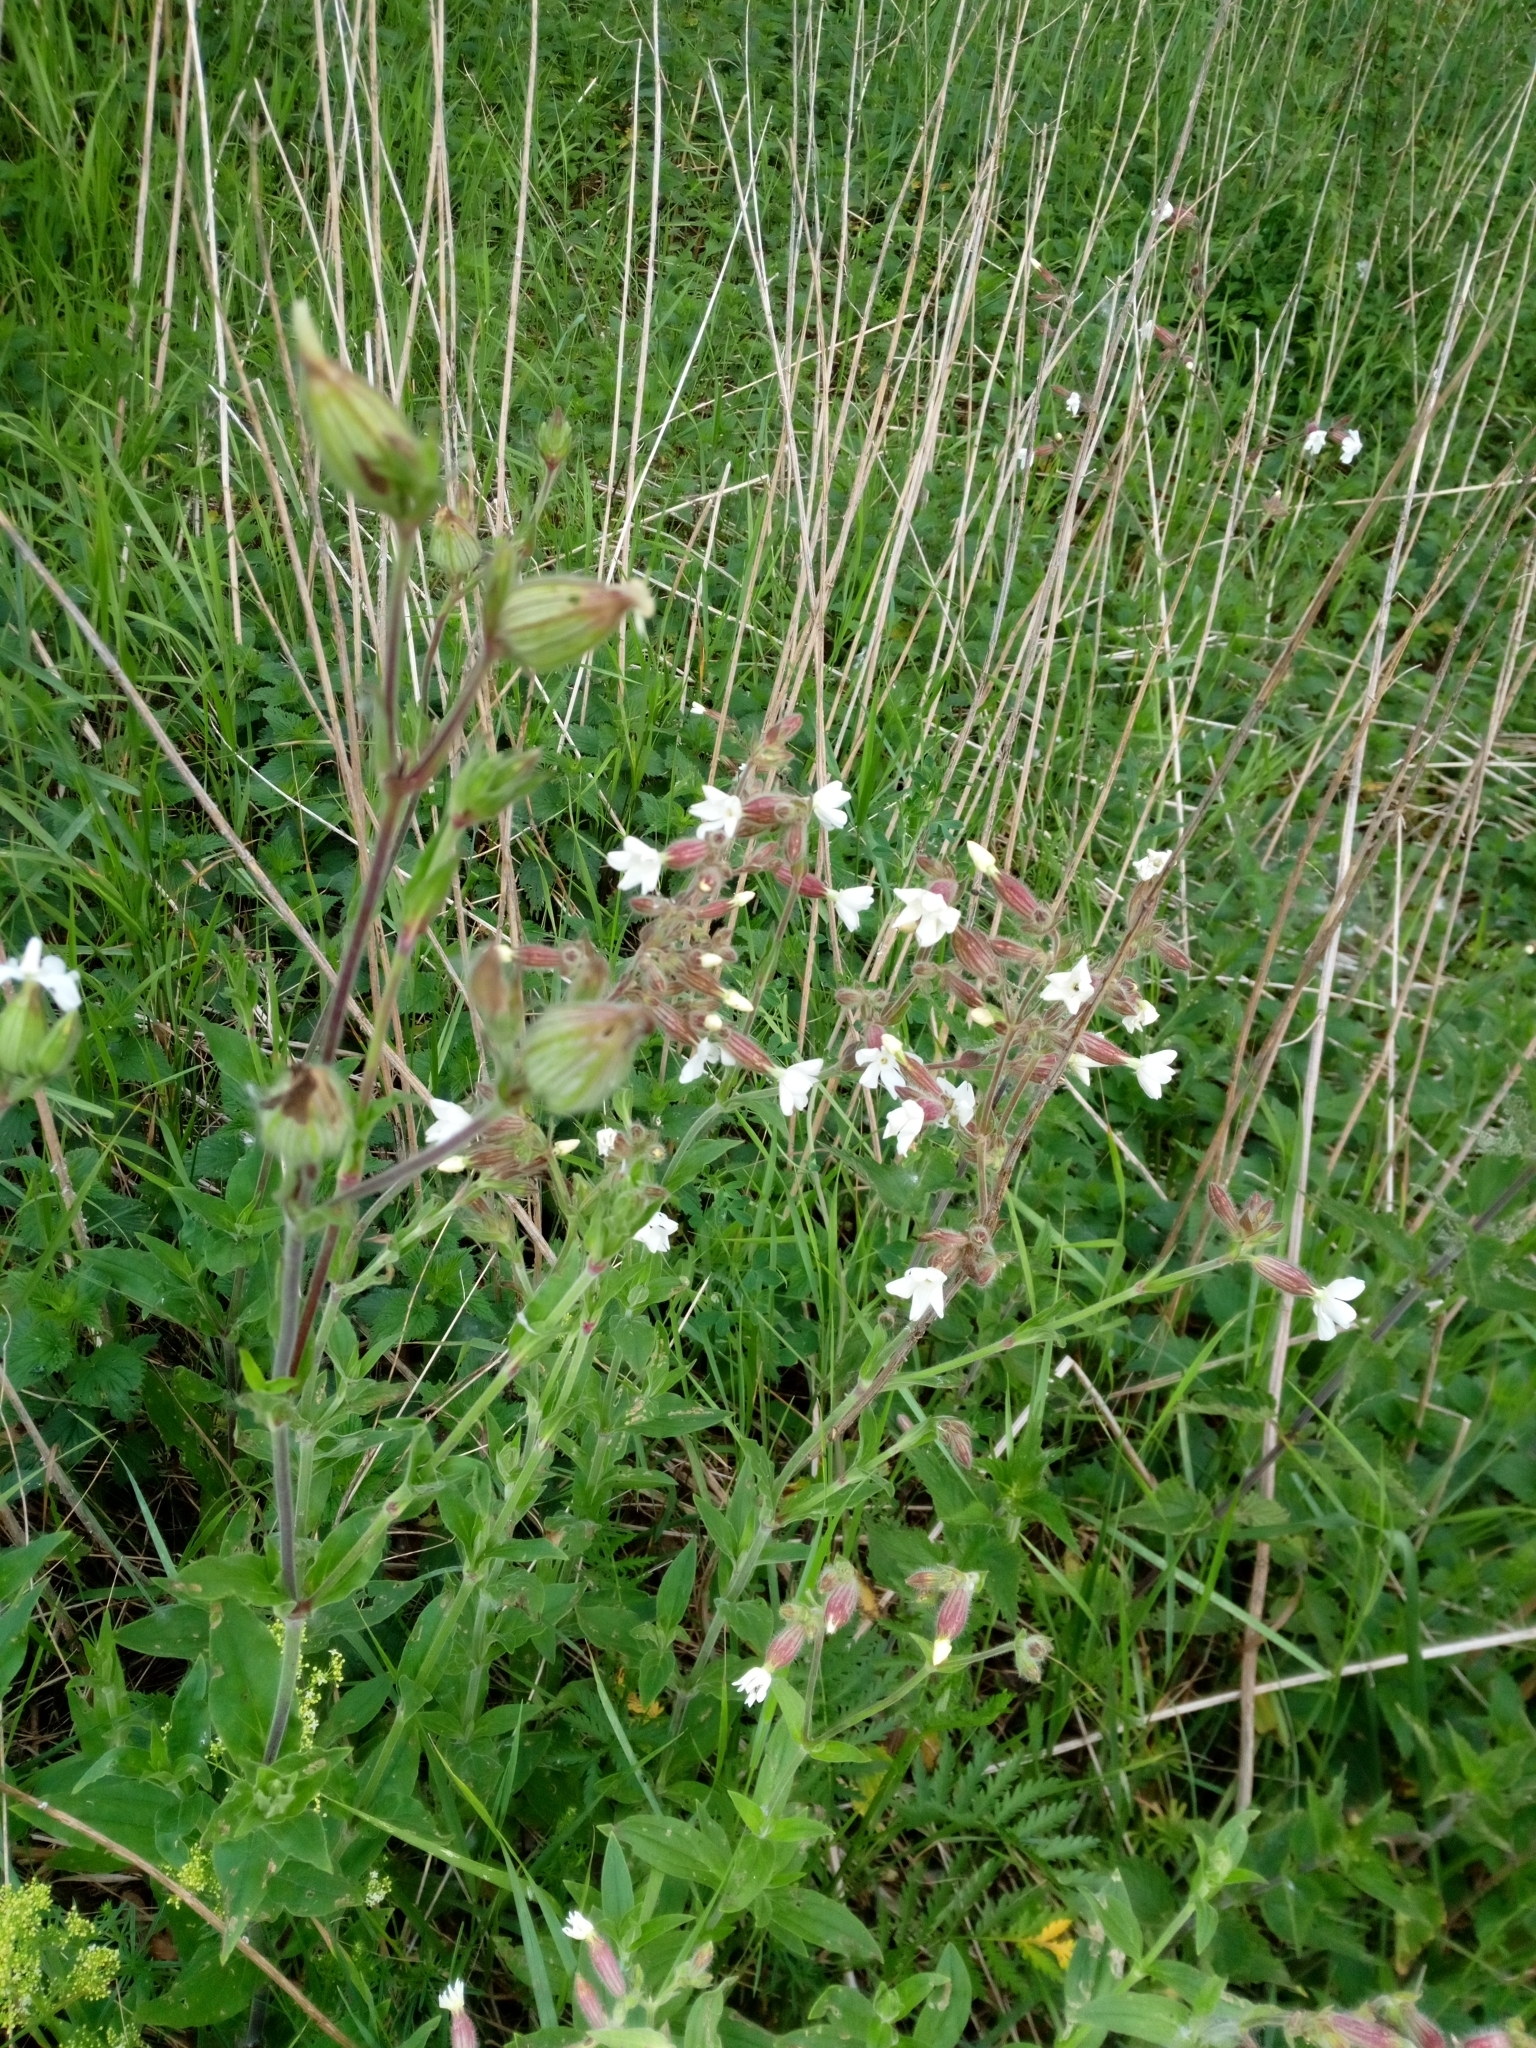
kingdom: Plantae
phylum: Tracheophyta
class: Magnoliopsida
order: Caryophyllales
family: Caryophyllaceae
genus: Silene
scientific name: Silene latifolia
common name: White campion
